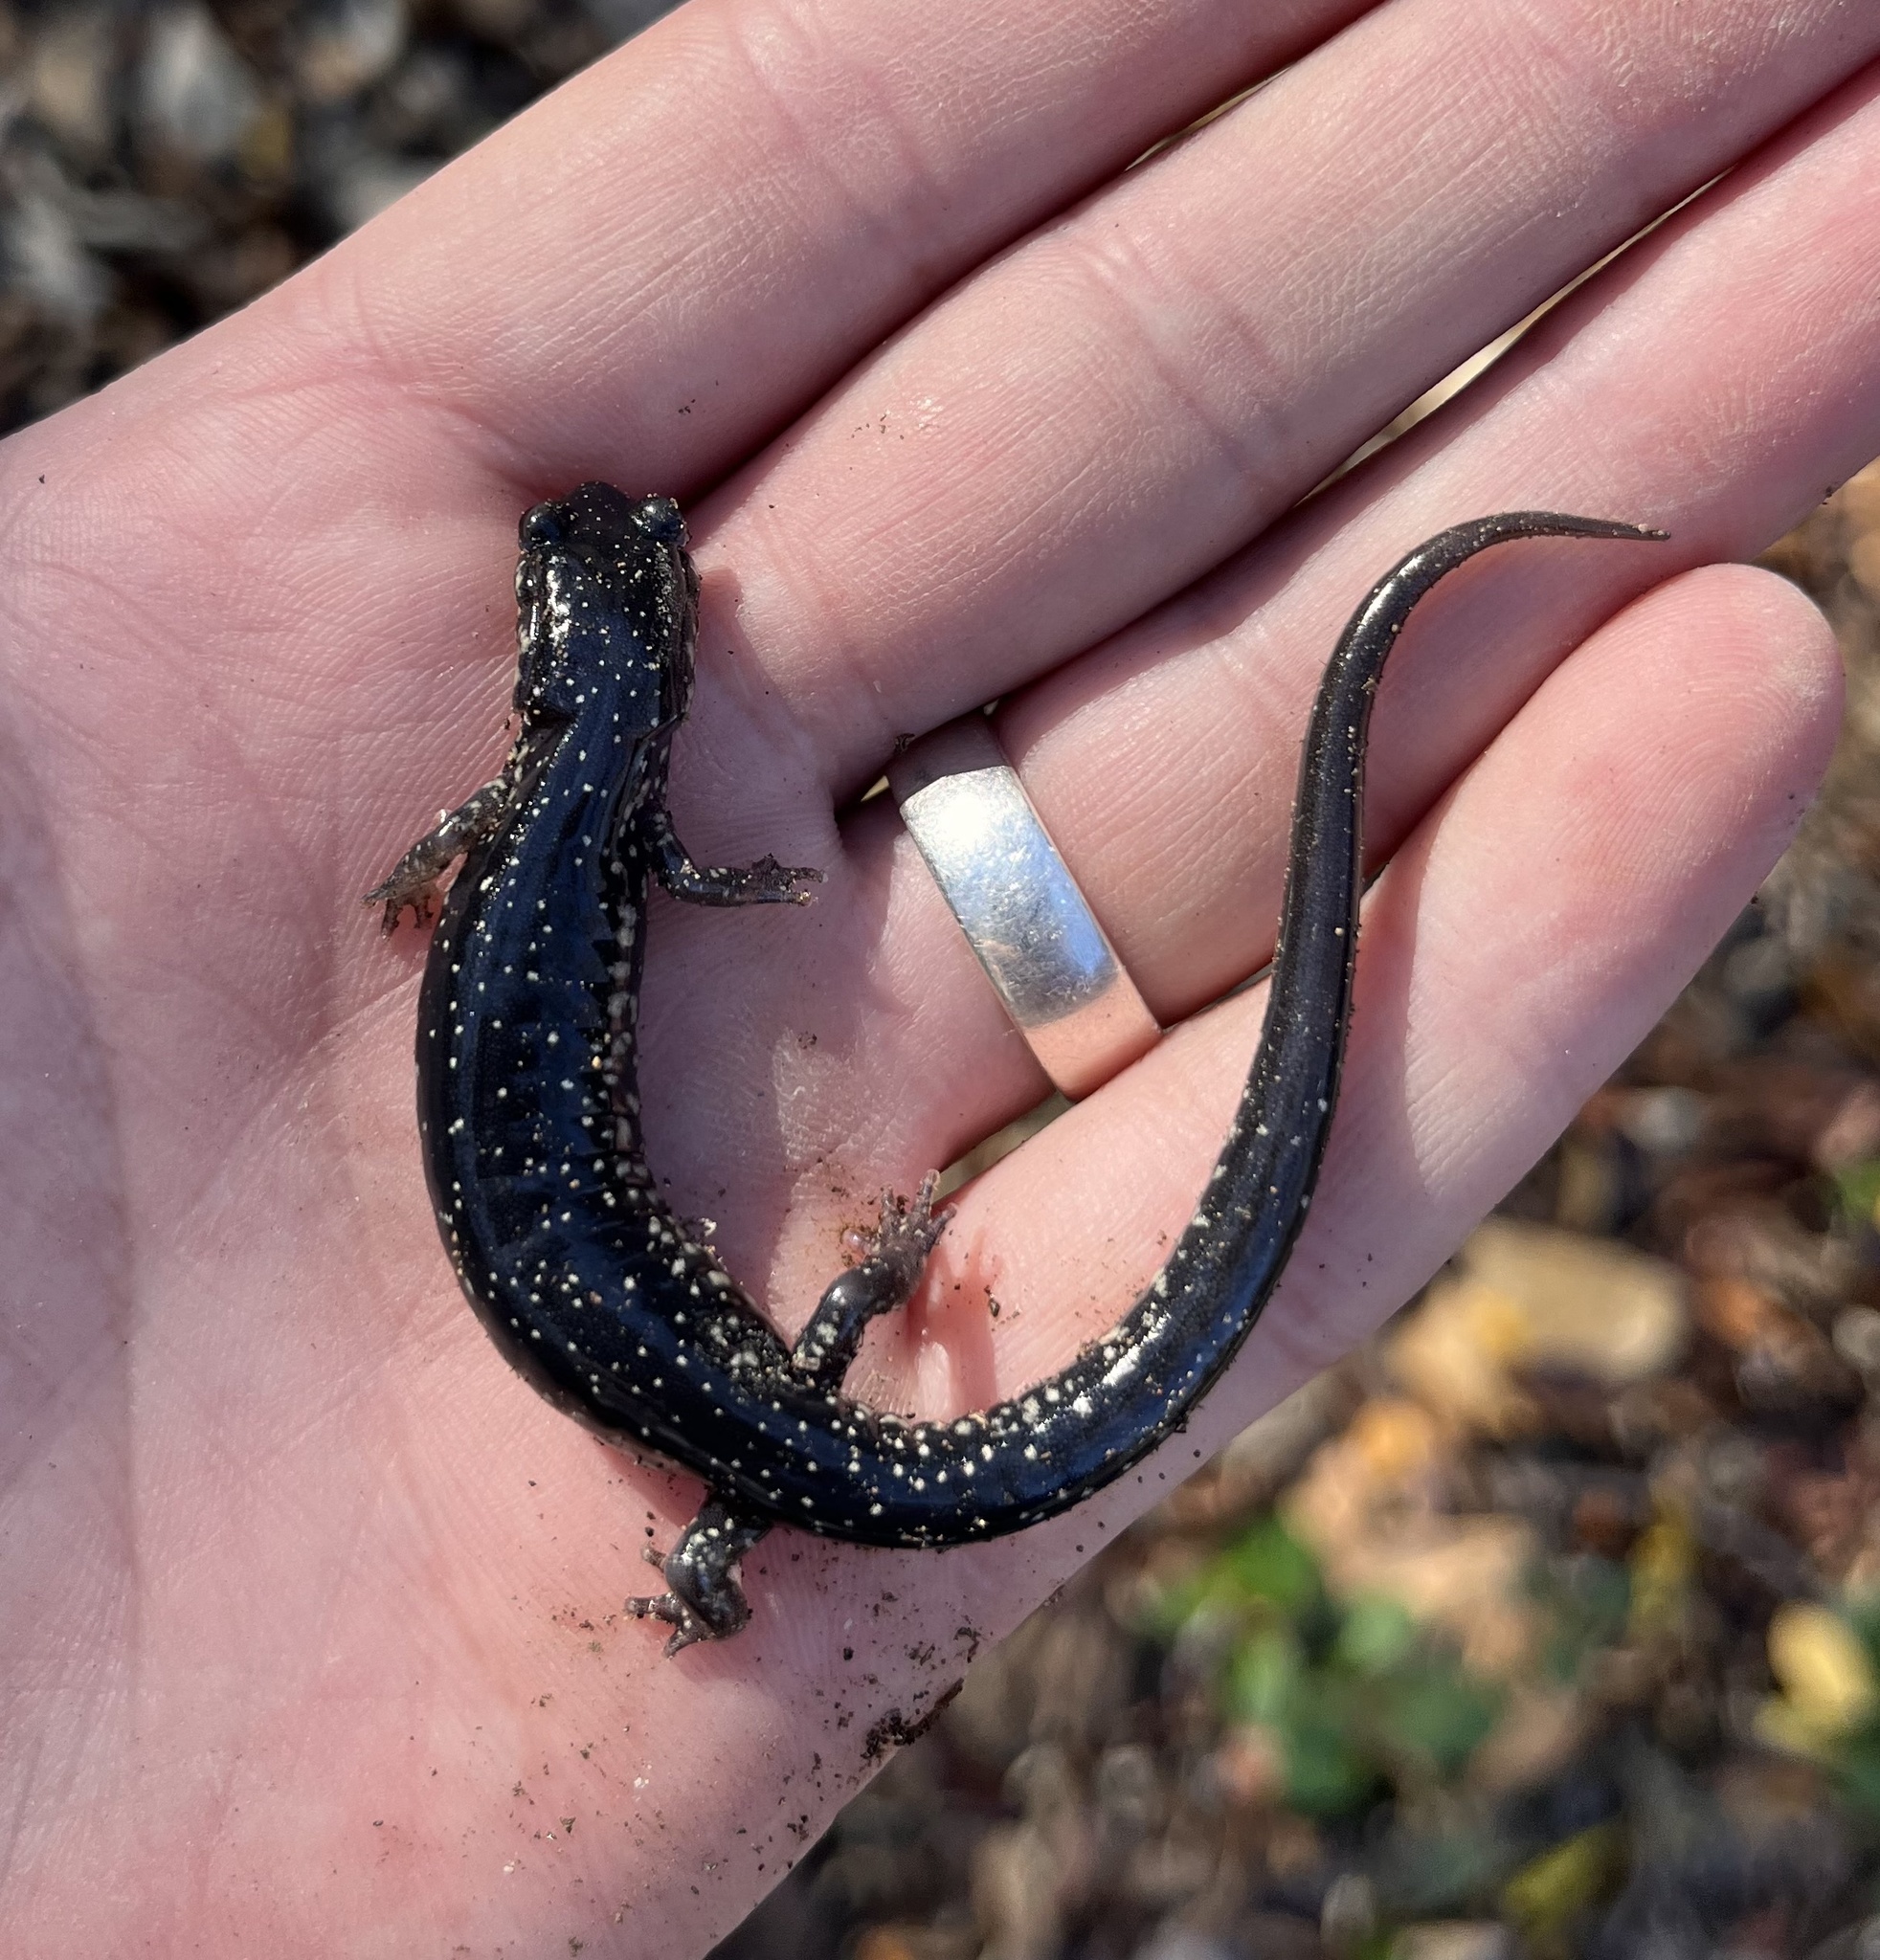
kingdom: Animalia
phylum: Chordata
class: Amphibia
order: Caudata
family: Plethodontidae
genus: Plethodon
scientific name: Plethodon albagula
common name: Western slimy salamander
